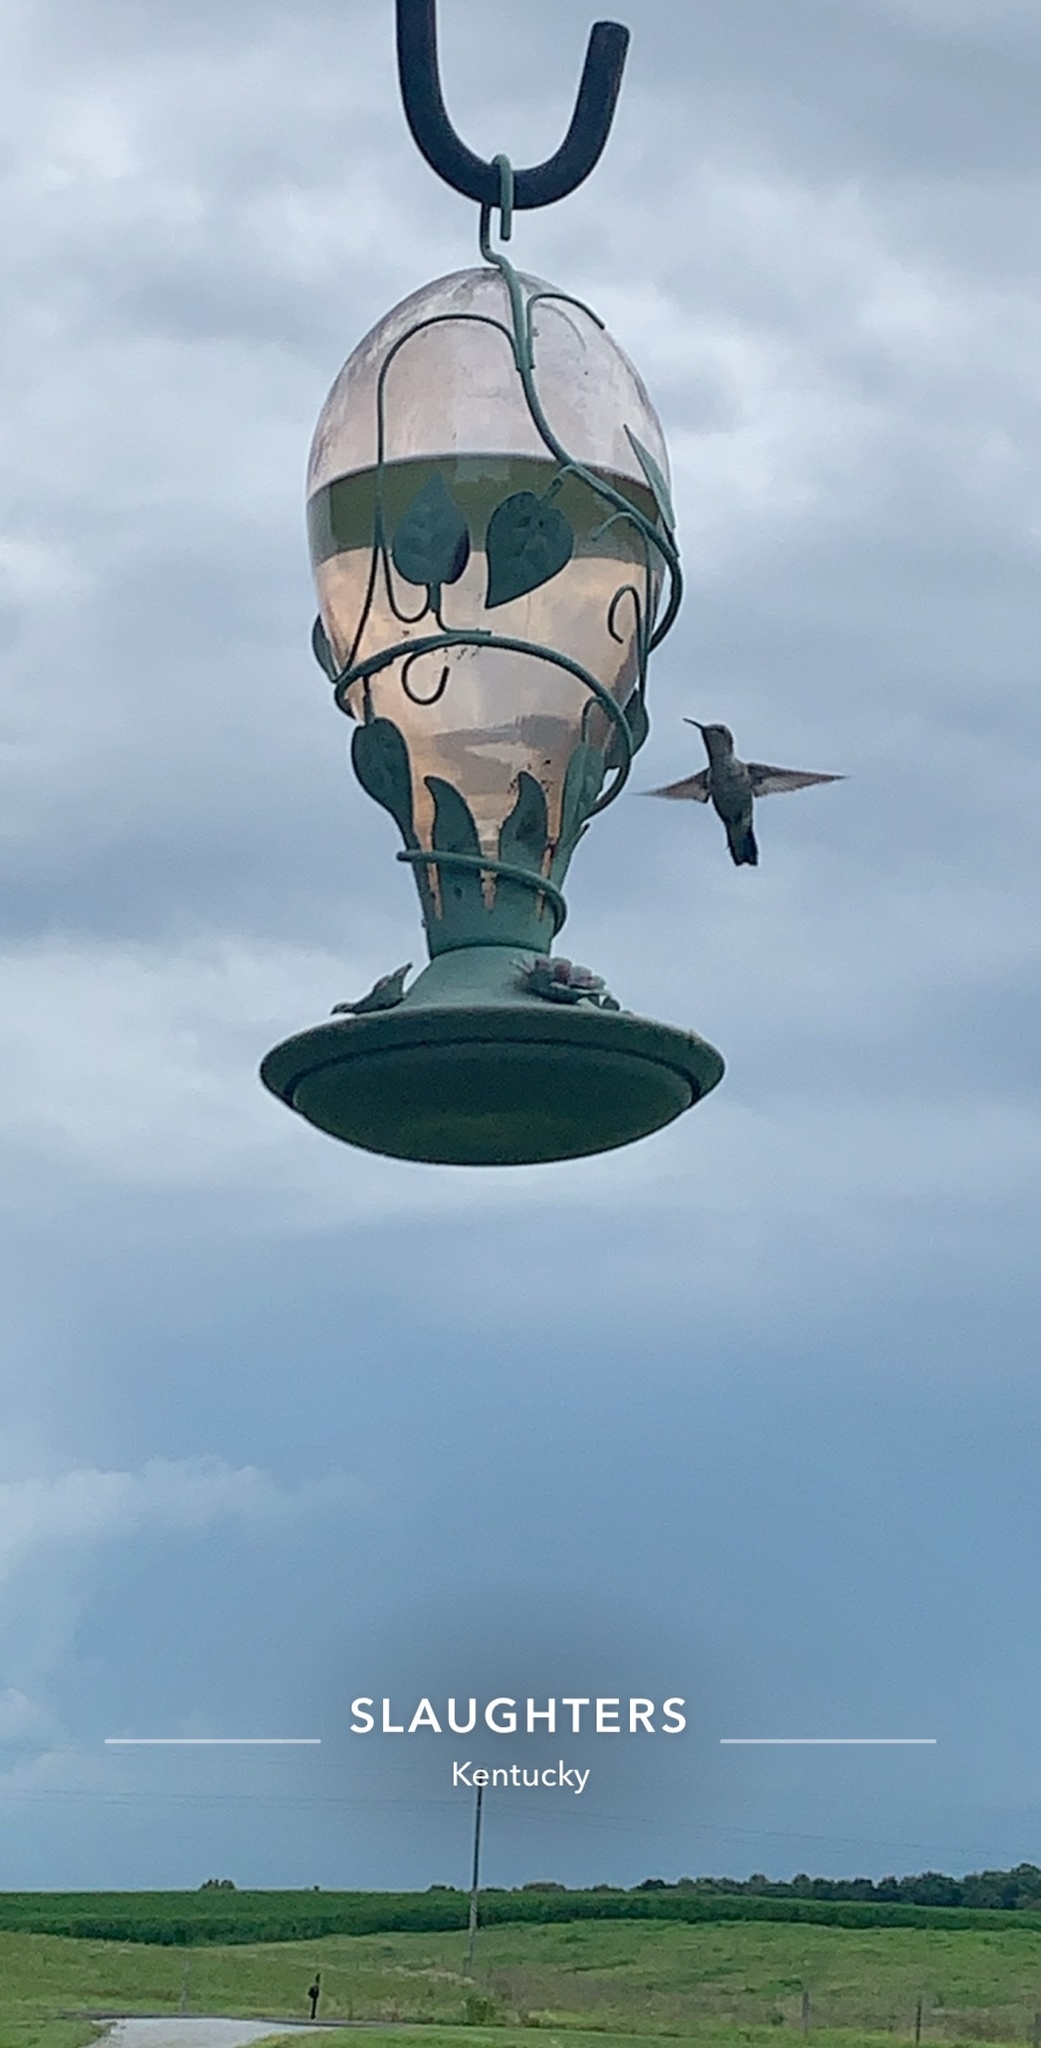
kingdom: Animalia
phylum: Chordata
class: Aves
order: Apodiformes
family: Trochilidae
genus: Archilochus
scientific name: Archilochus colubris
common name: Ruby-throated hummingbird
